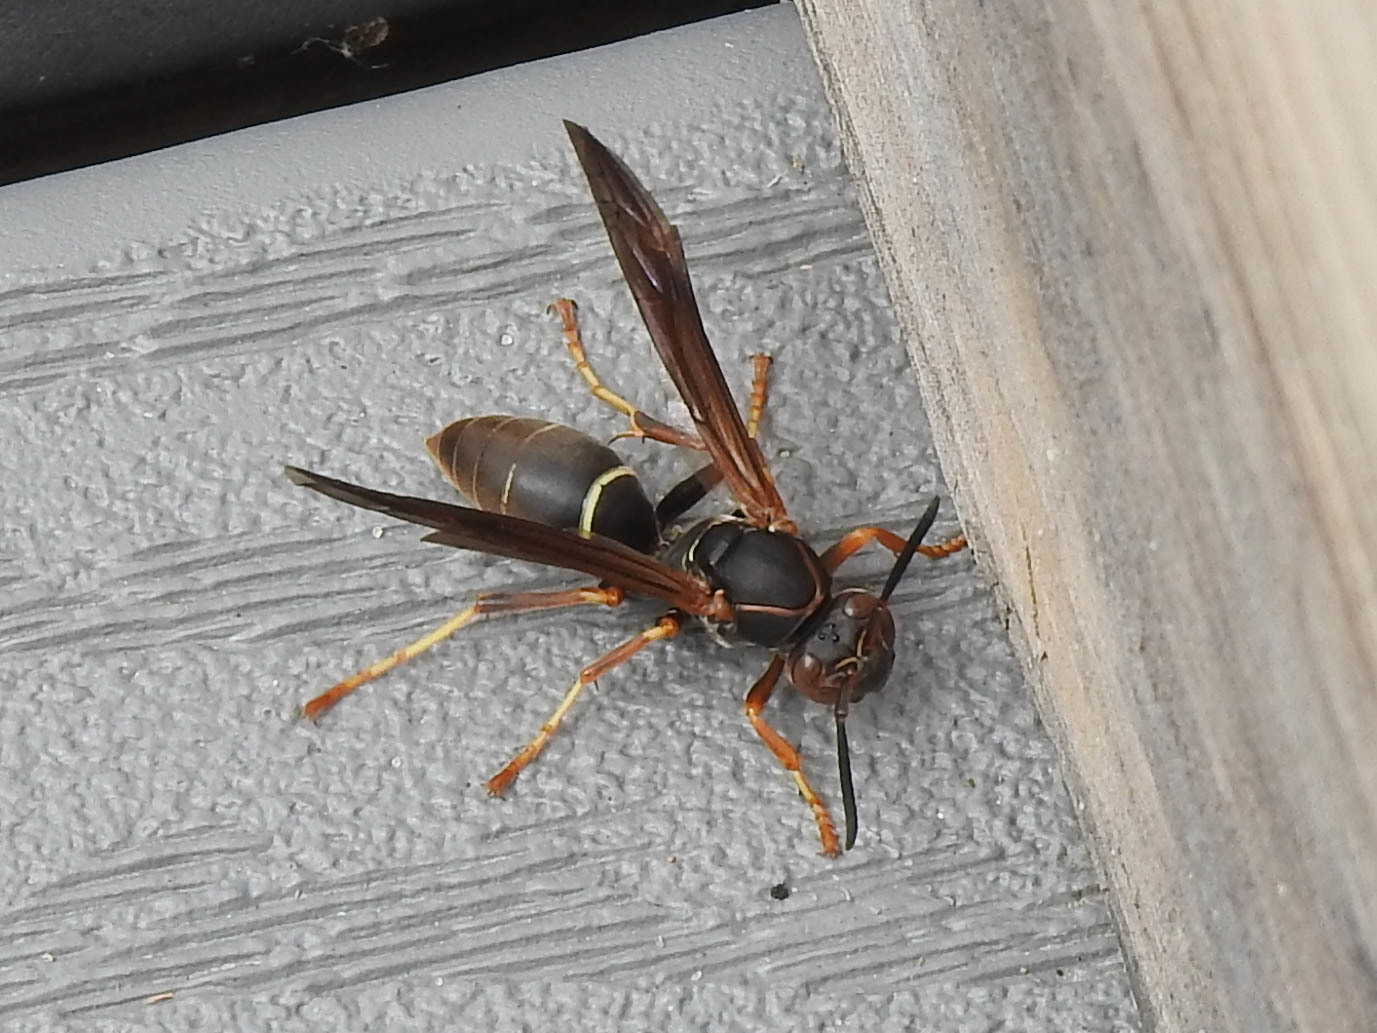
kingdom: Animalia
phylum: Arthropoda
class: Insecta
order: Hymenoptera
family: Eumenidae
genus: Polistes
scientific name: Polistes fuscatus
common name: Dark paper wasp
